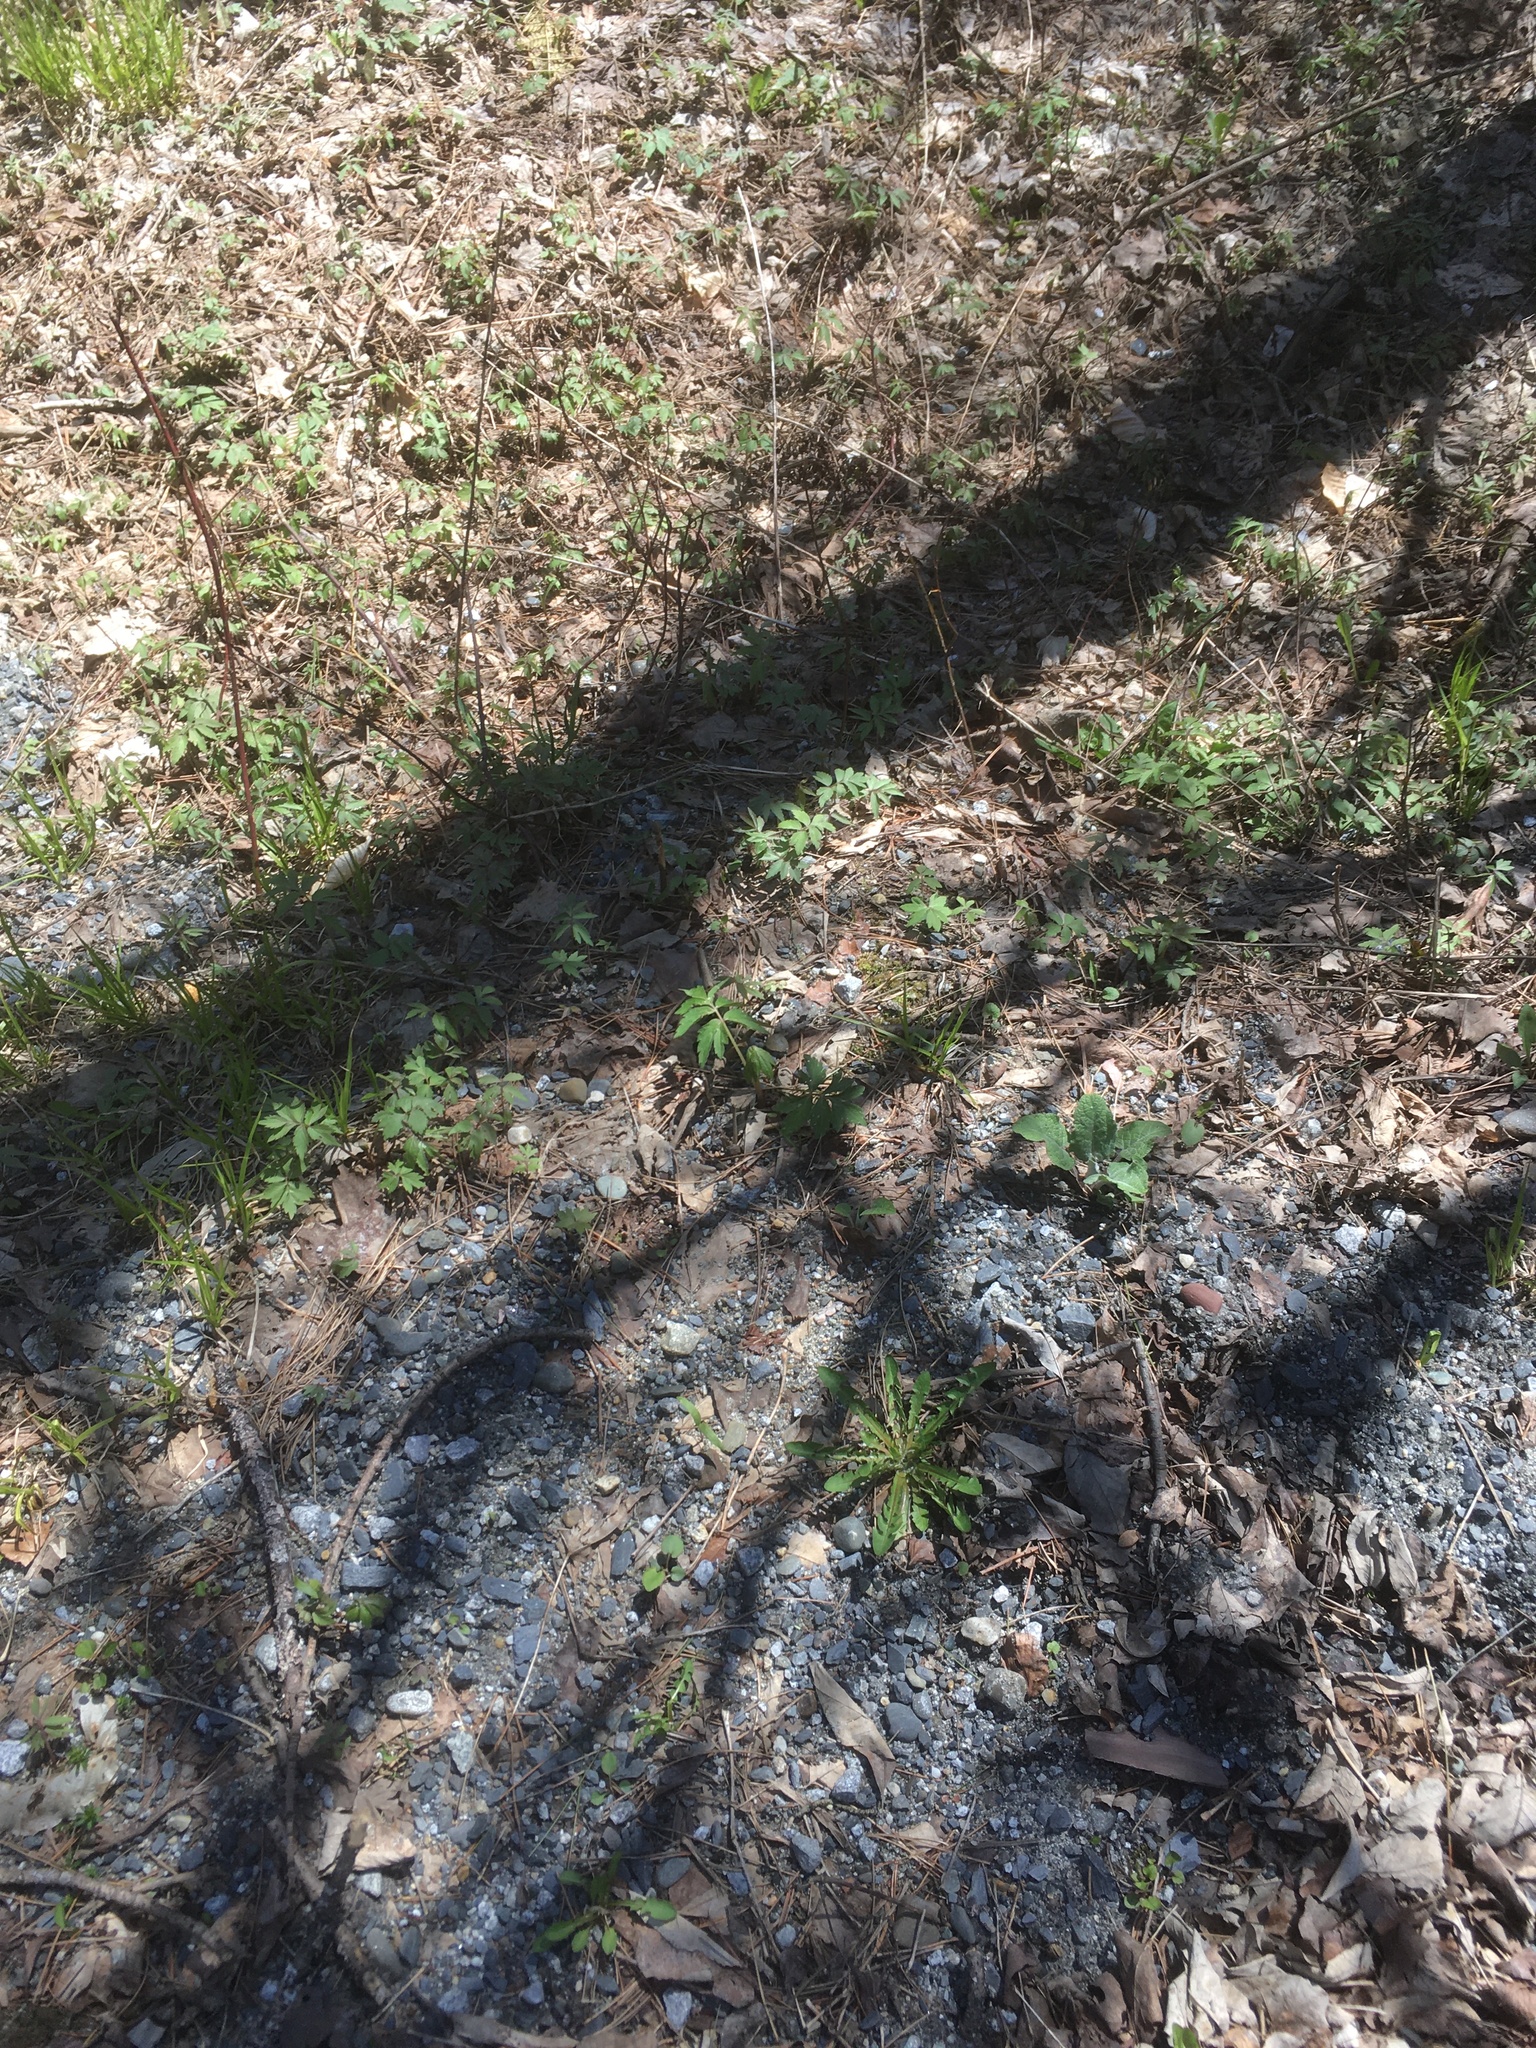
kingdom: Plantae
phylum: Tracheophyta
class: Magnoliopsida
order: Boraginales
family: Hydrophyllaceae
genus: Hydrophyllum
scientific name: Hydrophyllum virginianum
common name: Virginia waterleaf
